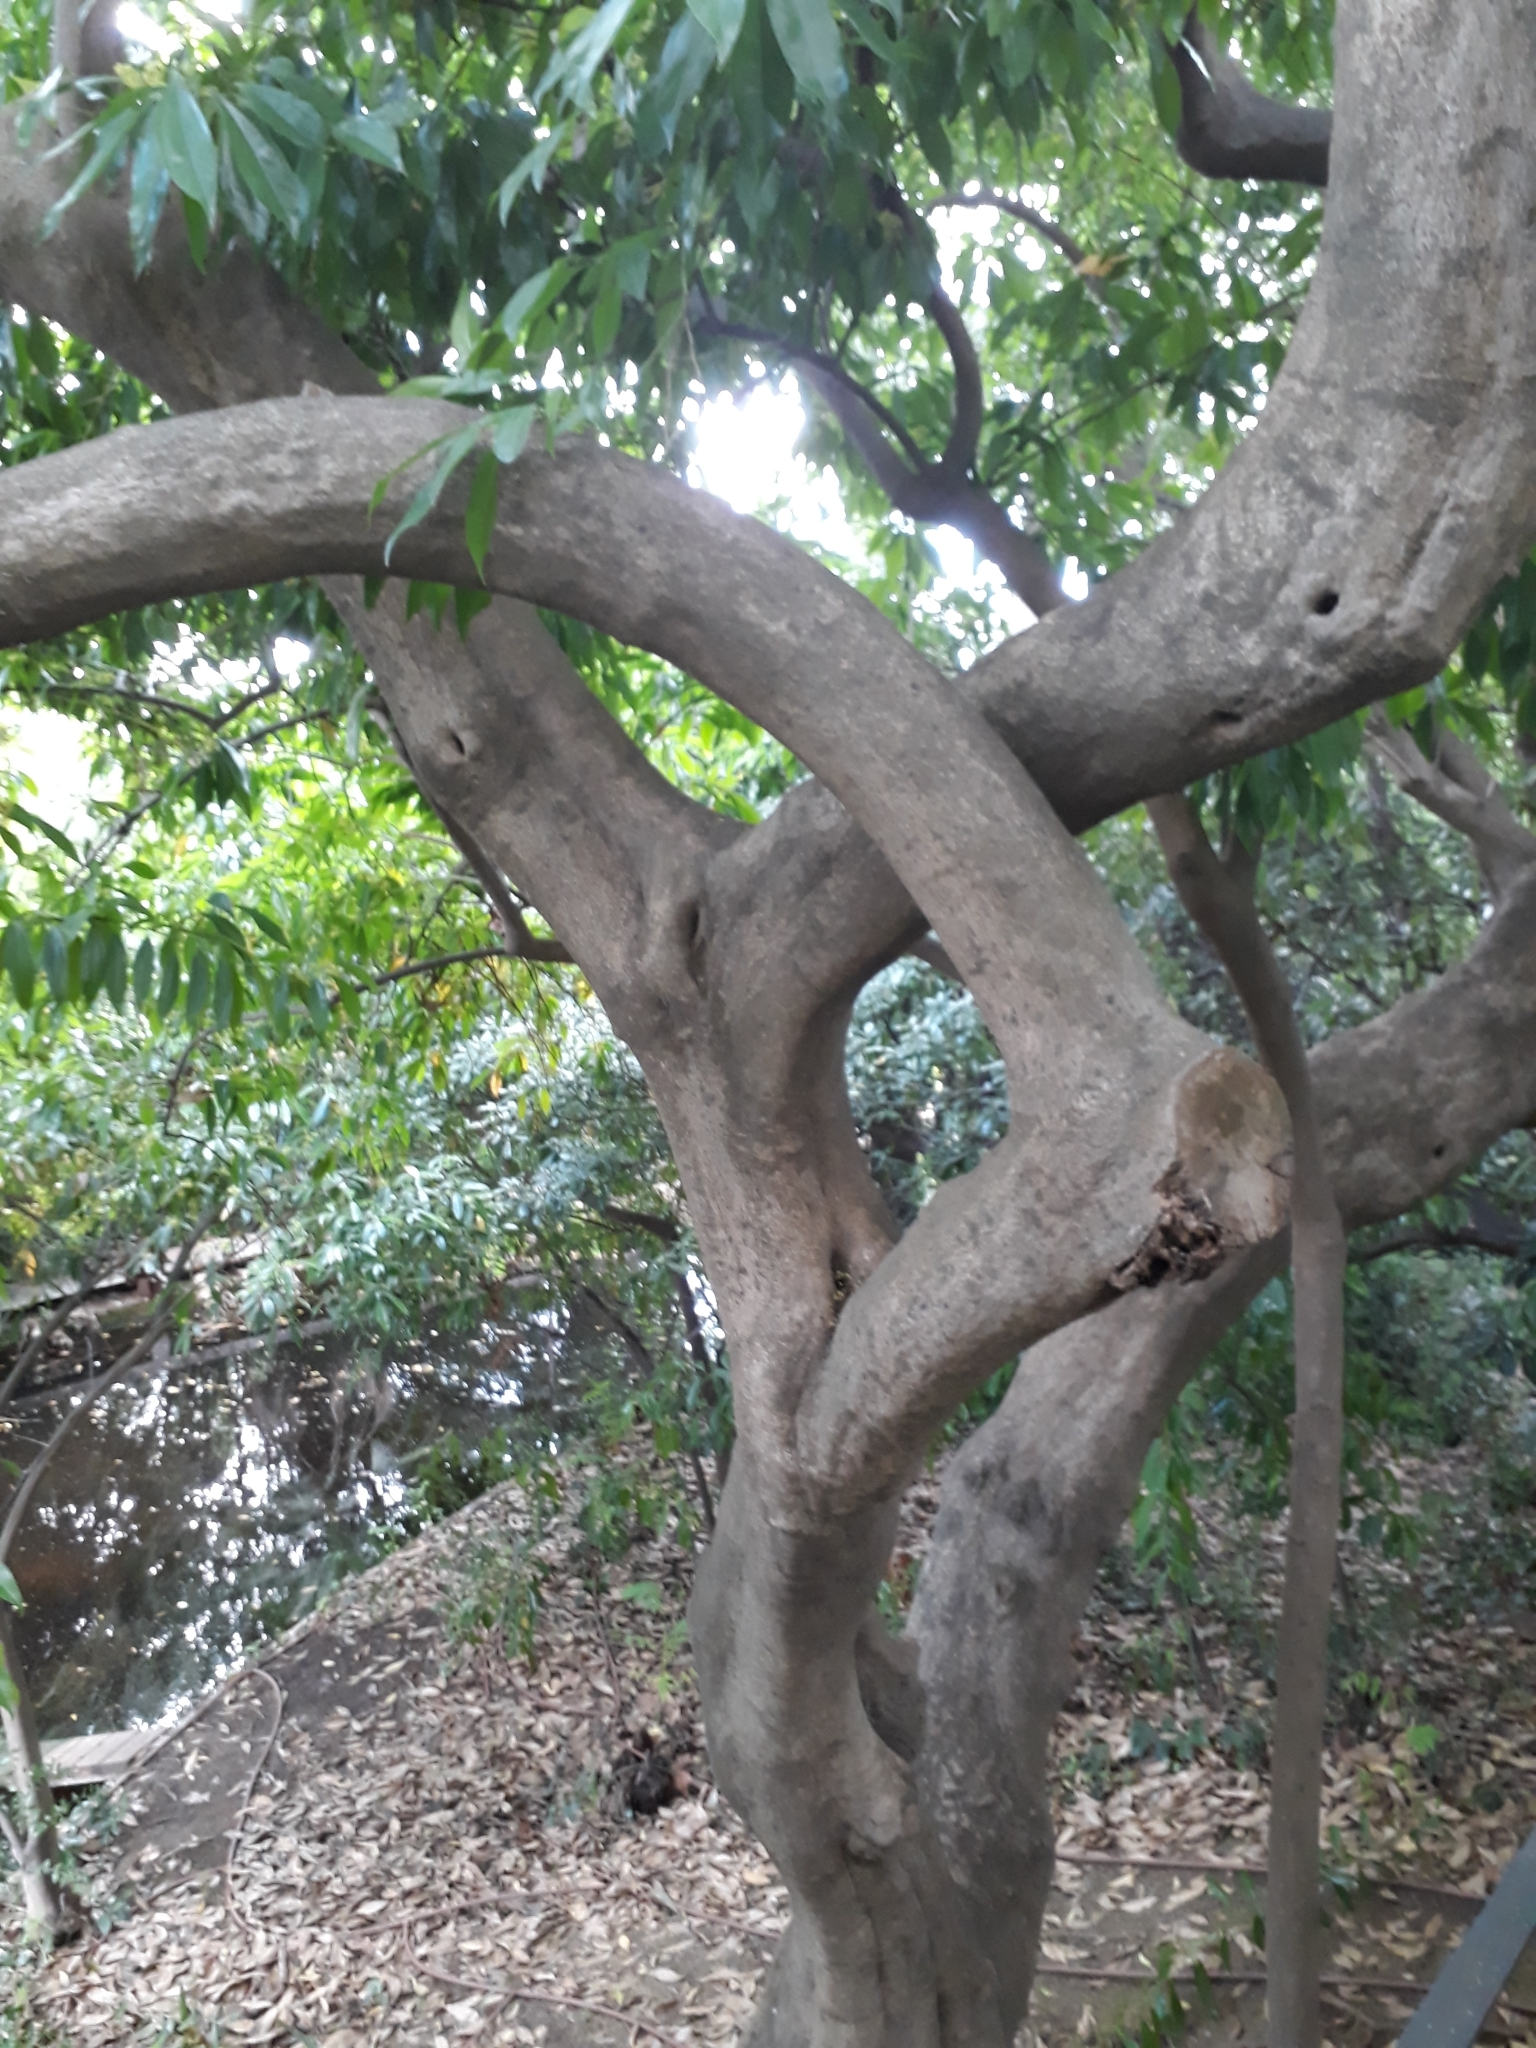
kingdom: Plantae
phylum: Tracheophyta
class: Magnoliopsida
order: Lamiales
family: Oleaceae
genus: Phillyrea
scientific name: Phillyrea angustifolia
